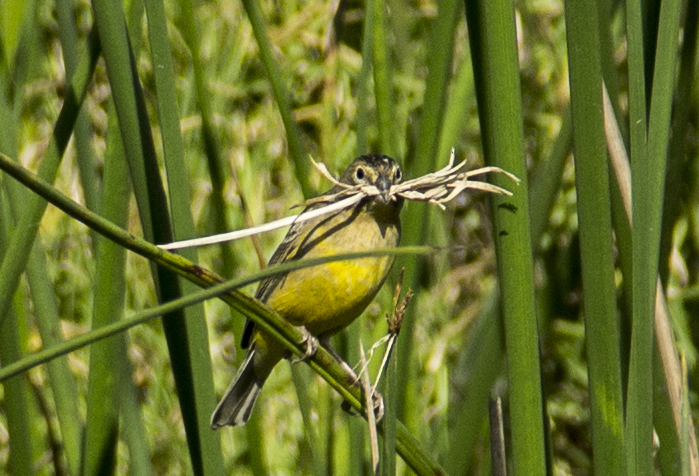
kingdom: Animalia
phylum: Chordata
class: Aves
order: Passeriformes
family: Thraupidae
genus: Sicalis
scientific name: Sicalis luteola
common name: Grassland yellow-finch
